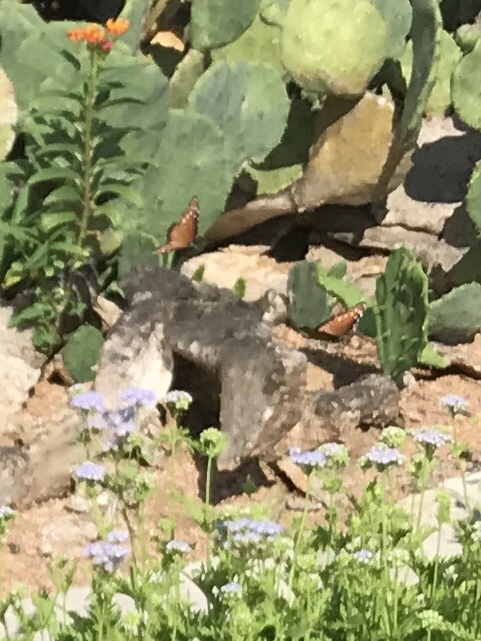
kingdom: Animalia
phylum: Arthropoda
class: Insecta
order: Lepidoptera
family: Nymphalidae
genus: Danaus
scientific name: Danaus gilippus
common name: Queen
